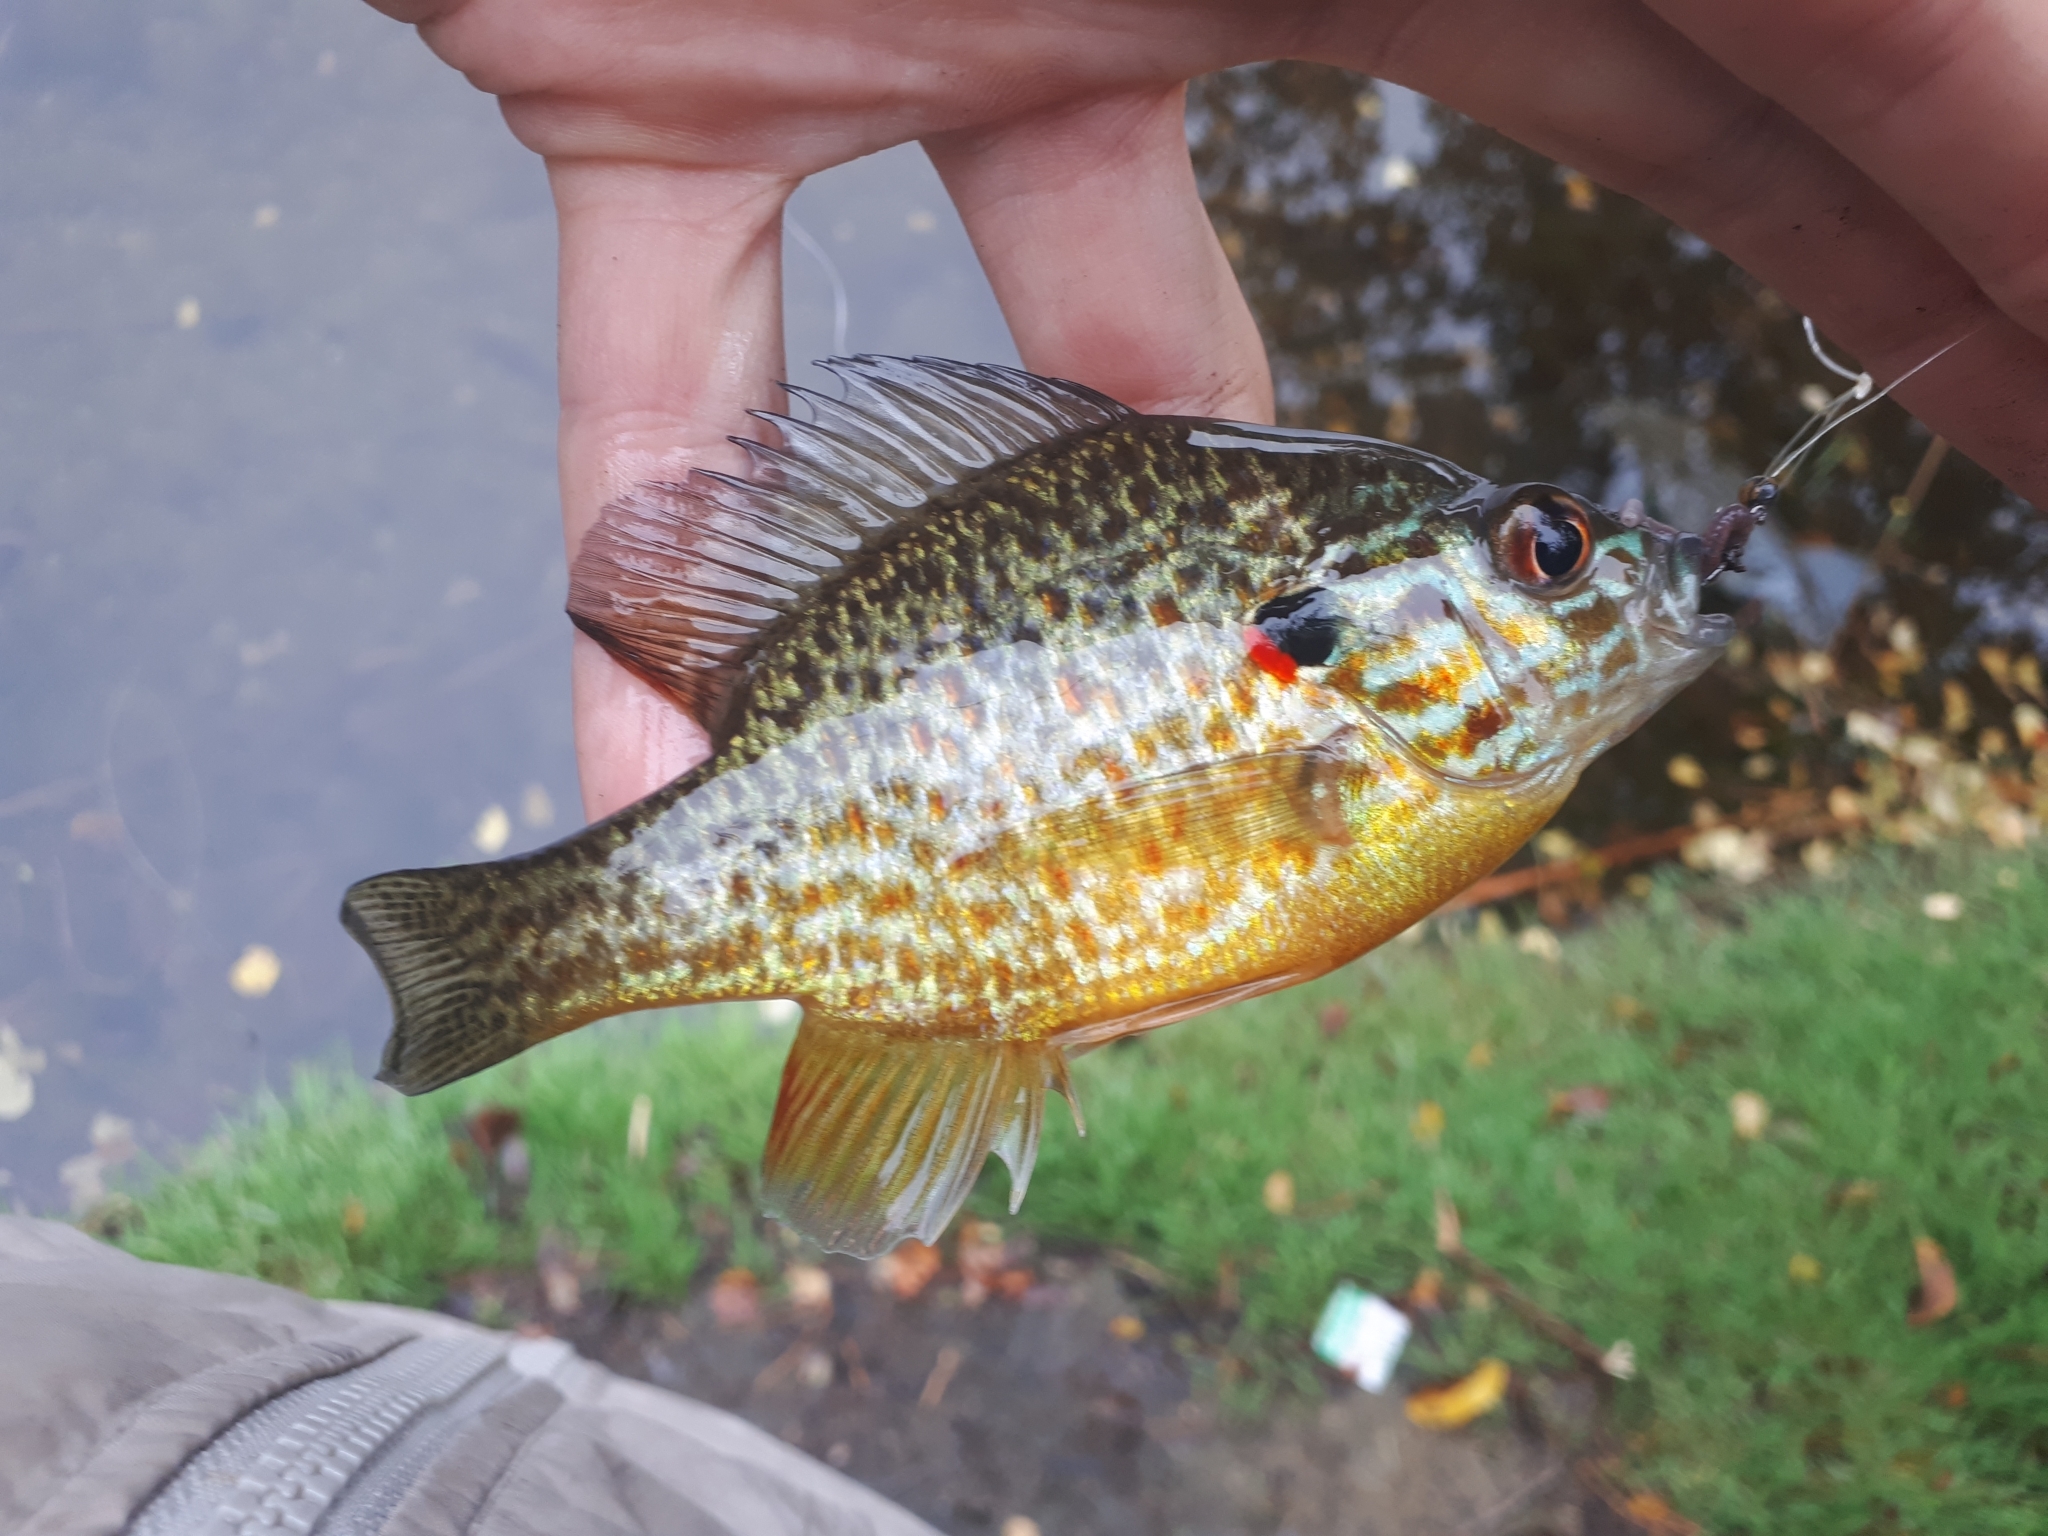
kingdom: Animalia
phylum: Chordata
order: Perciformes
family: Centrarchidae
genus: Lepomis
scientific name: Lepomis gibbosus
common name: Pumpkinseed
